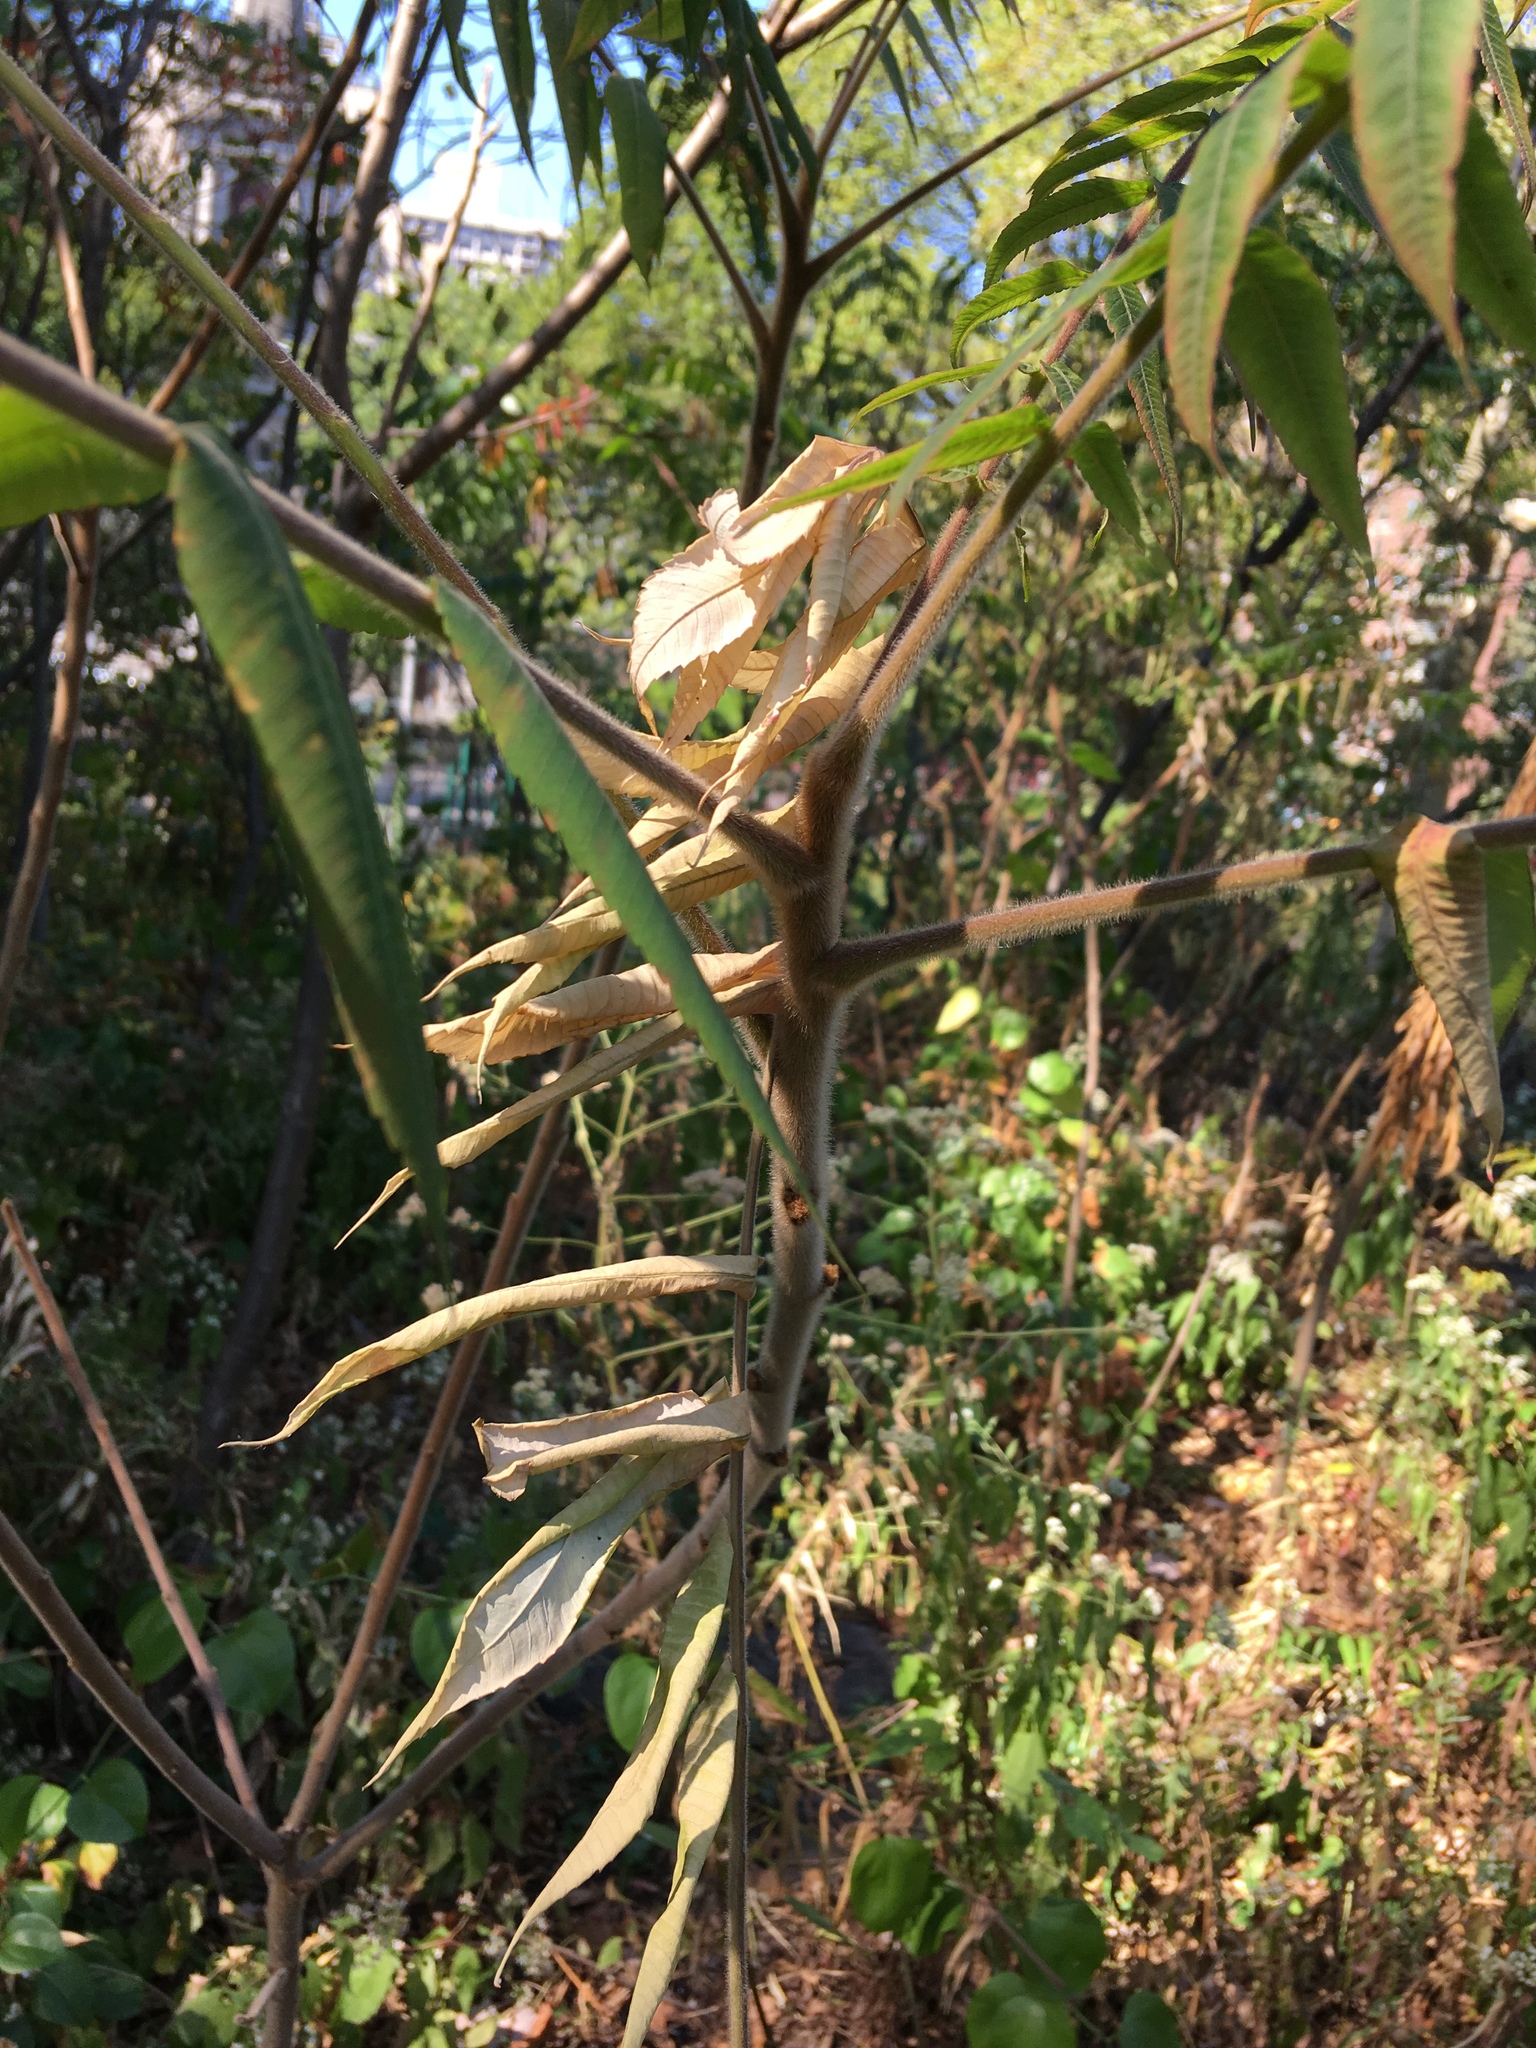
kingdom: Plantae
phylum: Tracheophyta
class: Magnoliopsida
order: Sapindales
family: Anacardiaceae
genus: Rhus
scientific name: Rhus typhina
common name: Staghorn sumac
